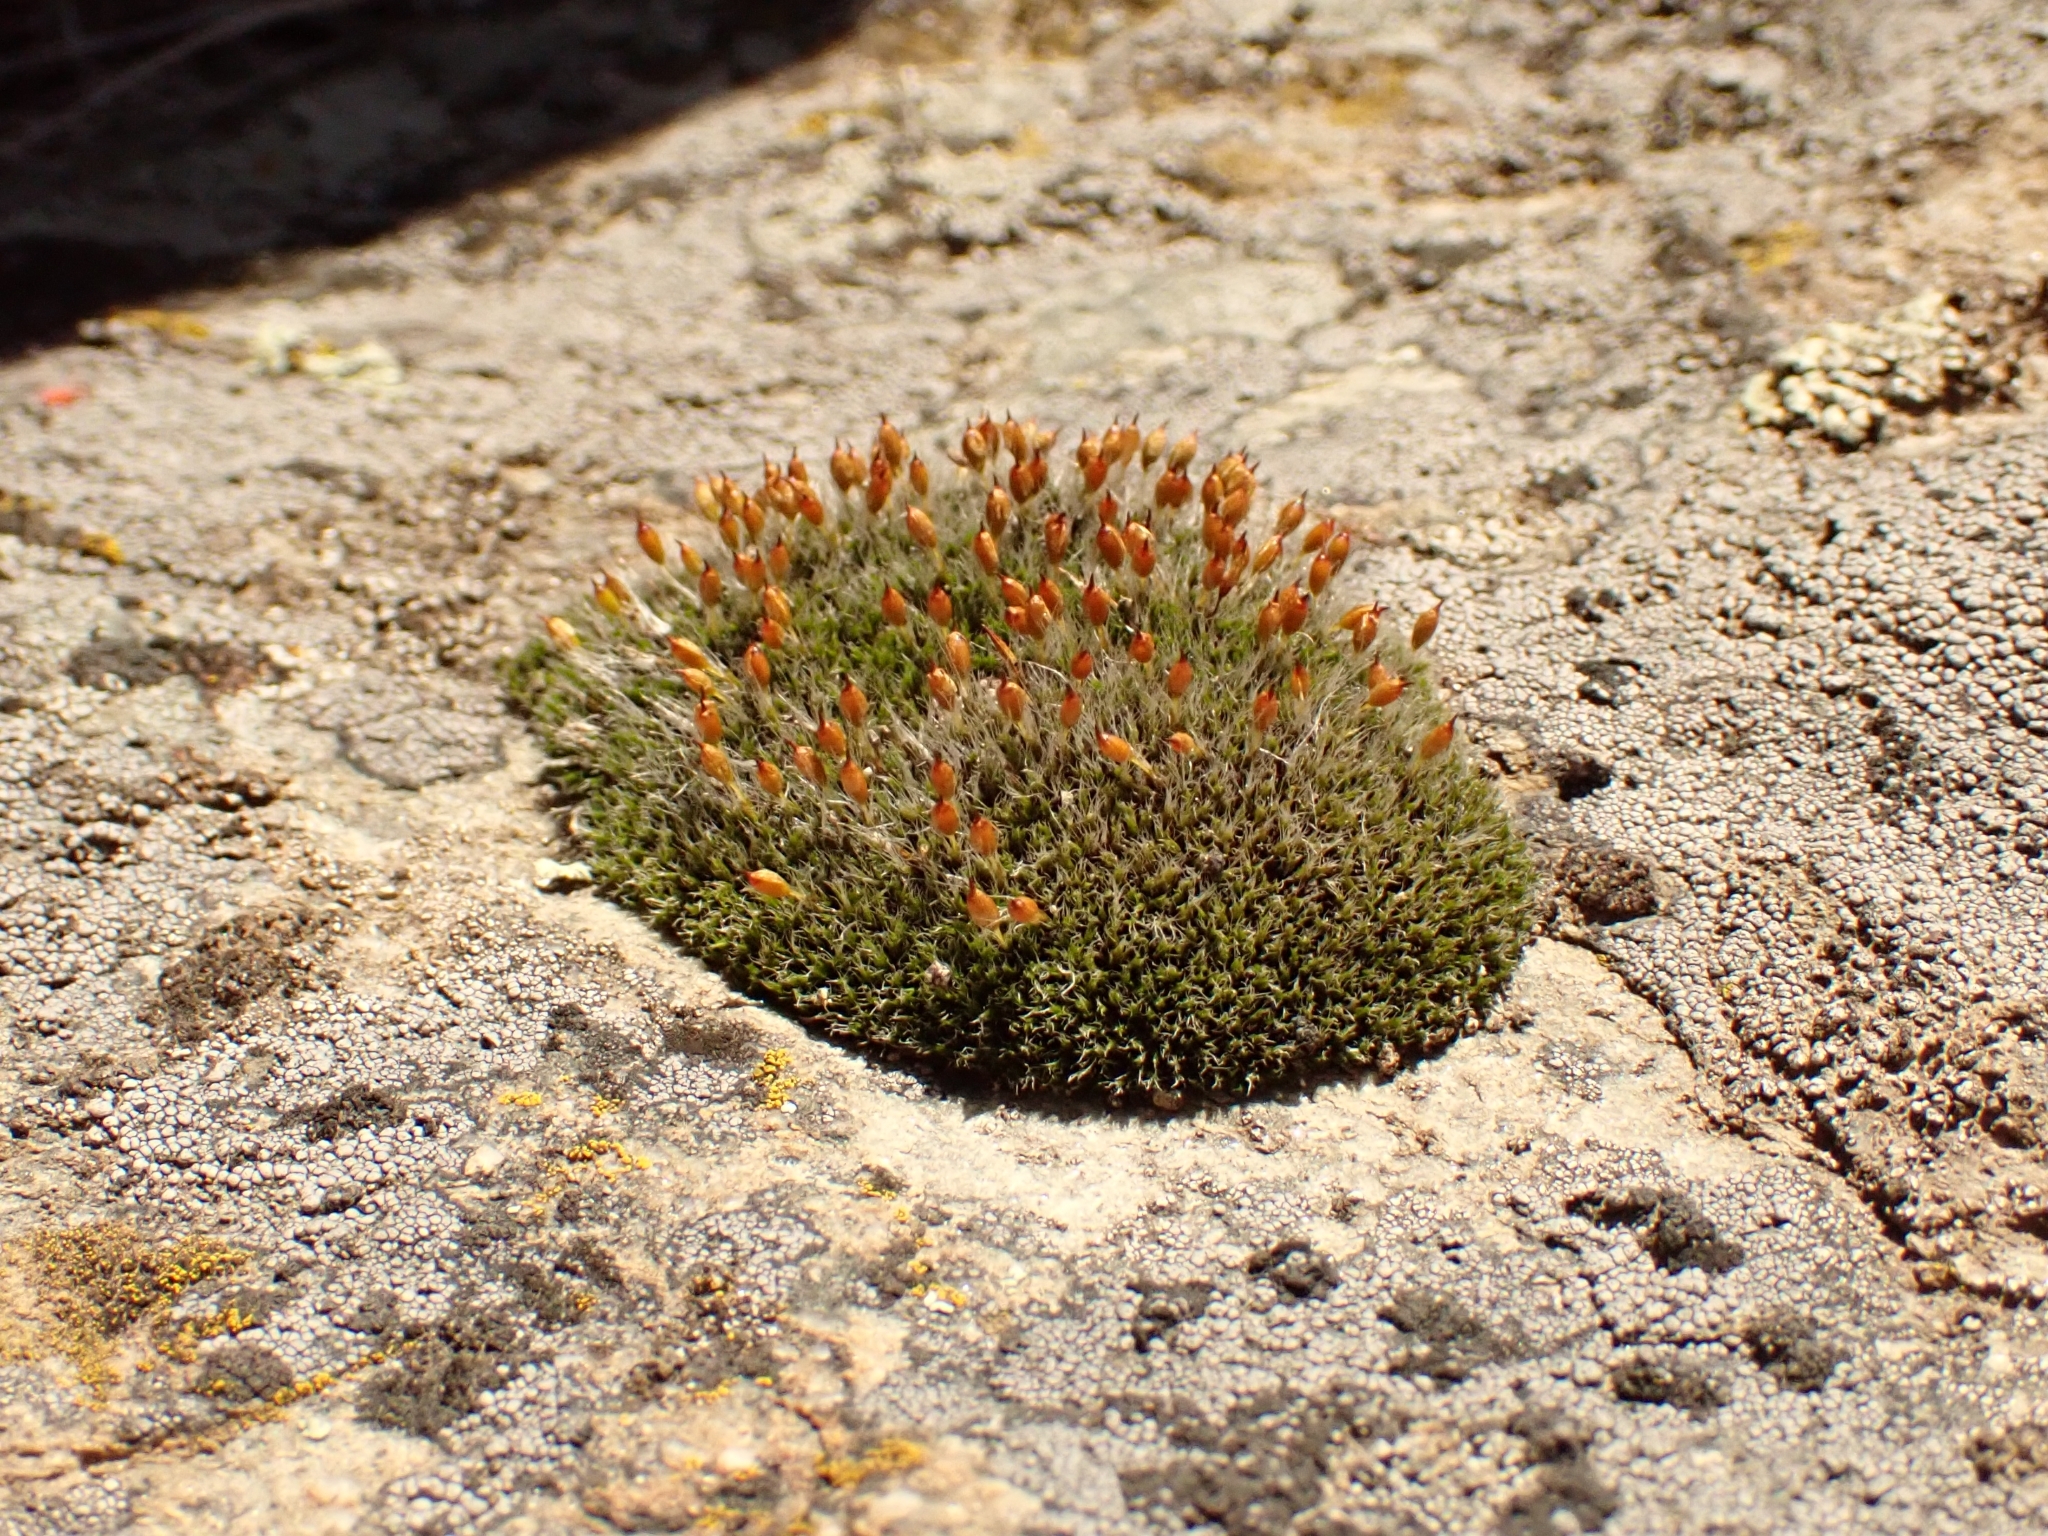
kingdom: Plantae
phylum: Bryophyta
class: Bryopsida
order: Grimmiales
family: Grimmiaceae
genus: Coscinodon
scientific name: Coscinodon calyptratus
